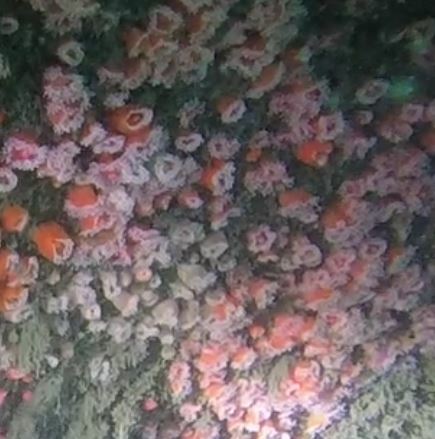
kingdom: Animalia
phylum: Cnidaria
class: Anthozoa
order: Corallimorpharia
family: Corallimorphidae
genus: Corynactis
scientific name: Corynactis californica
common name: Strawberry corallimorpharian
